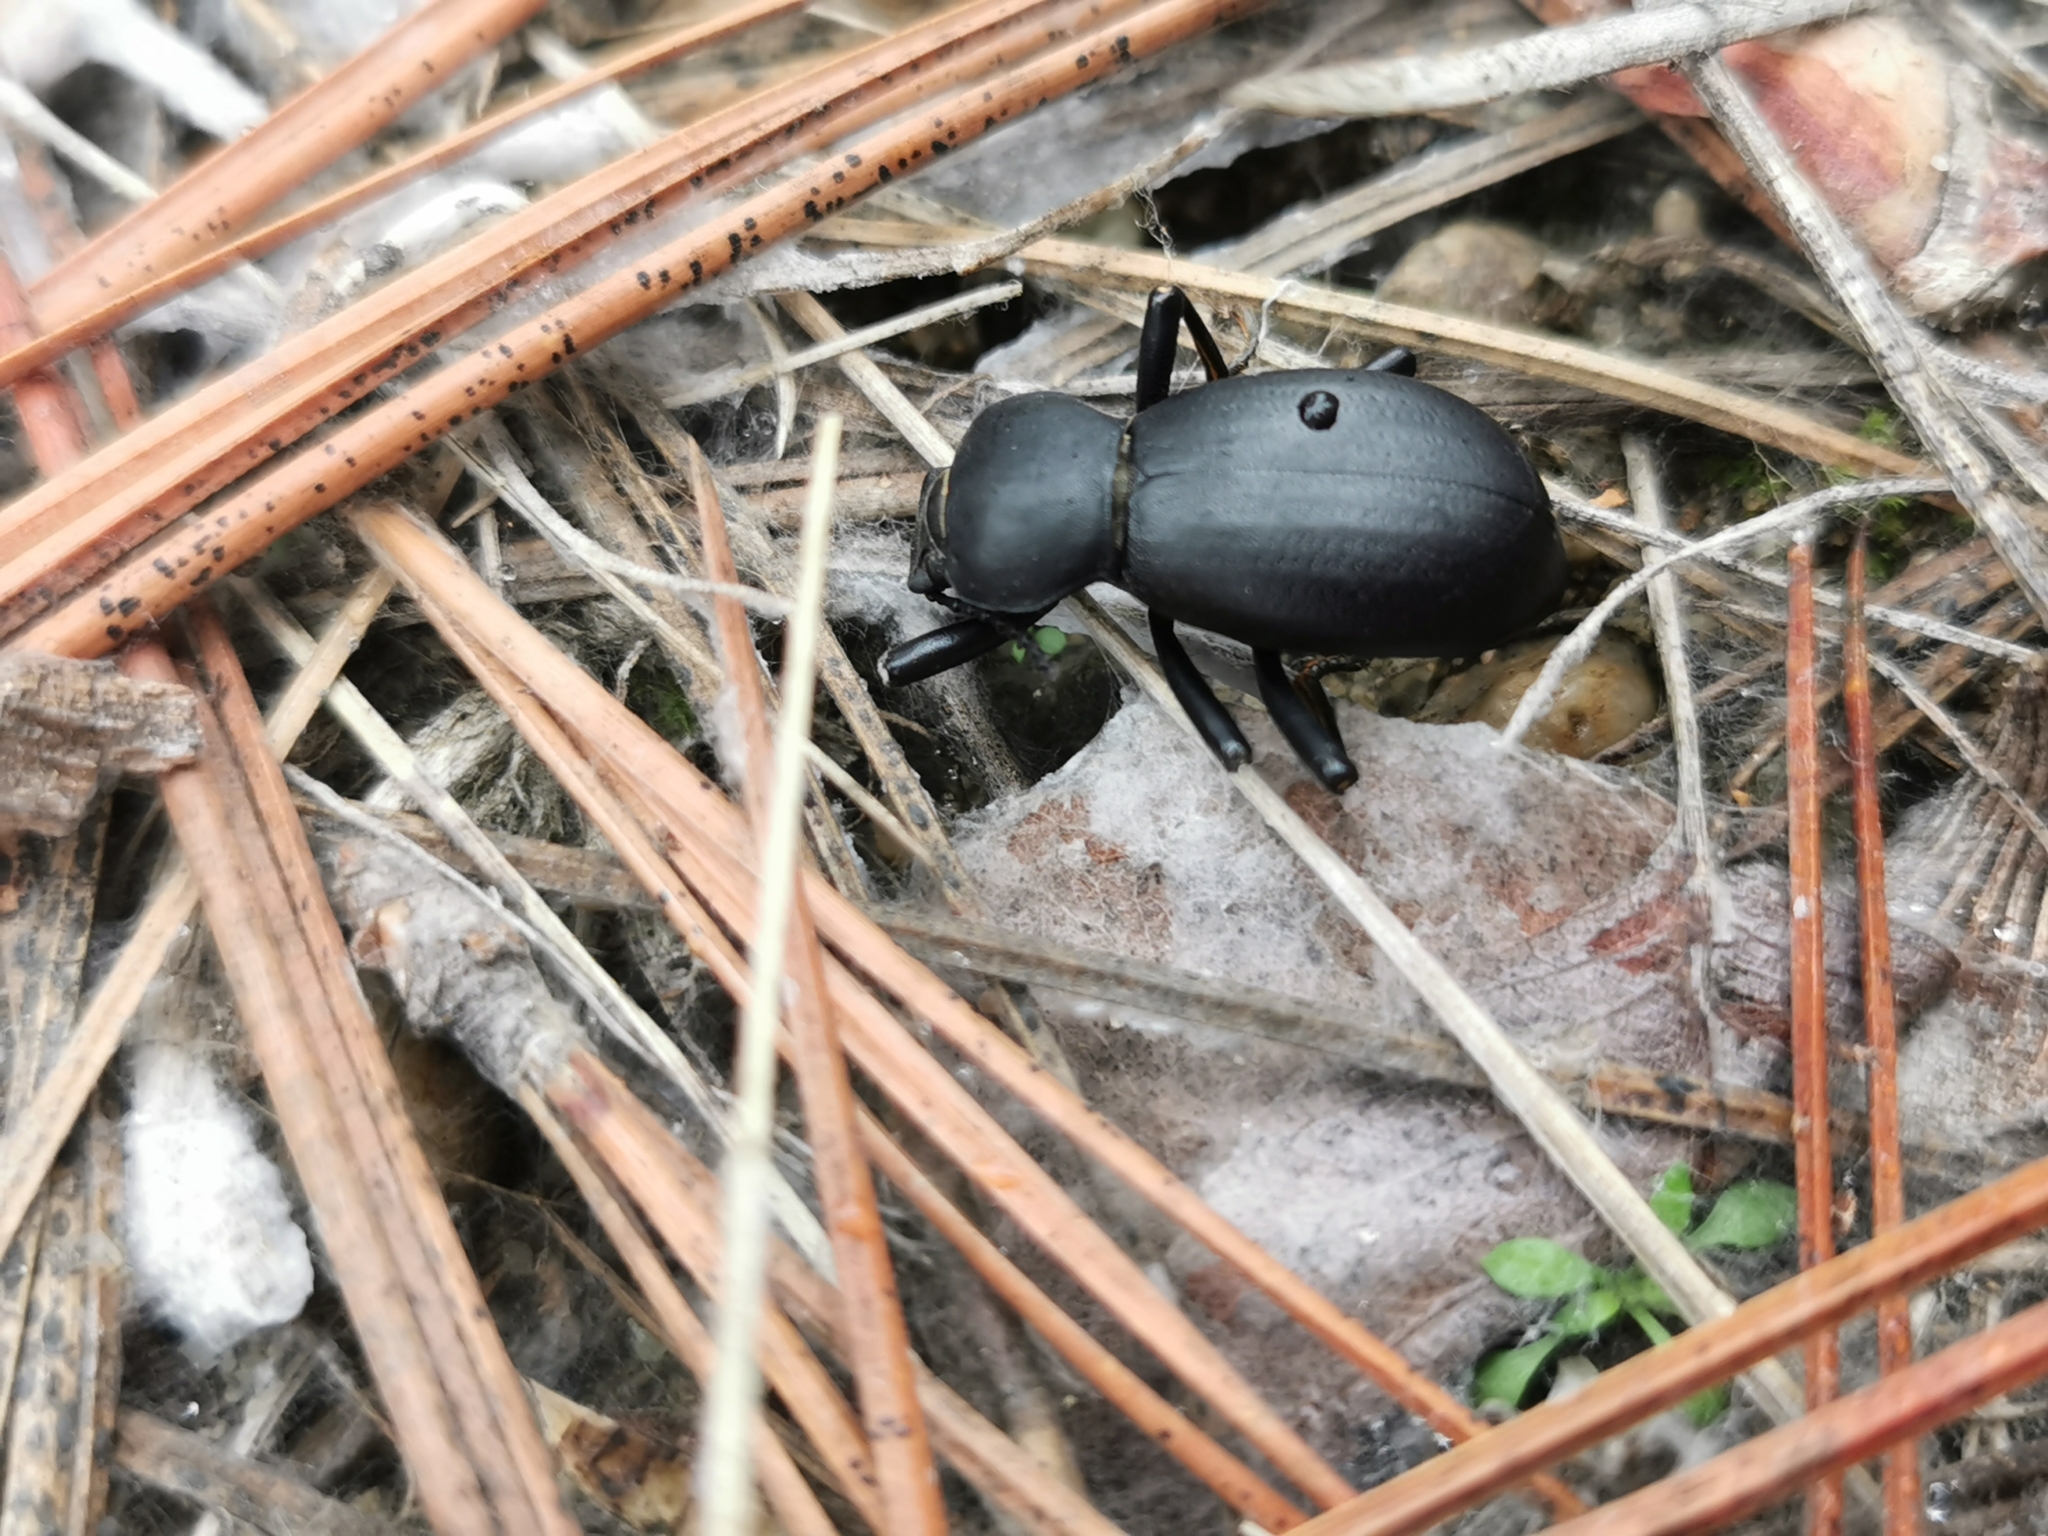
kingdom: Animalia
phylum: Arthropoda
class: Insecta
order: Coleoptera
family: Tenebrionidae
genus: Coelocnemis
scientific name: Coelocnemis dilaticollis
